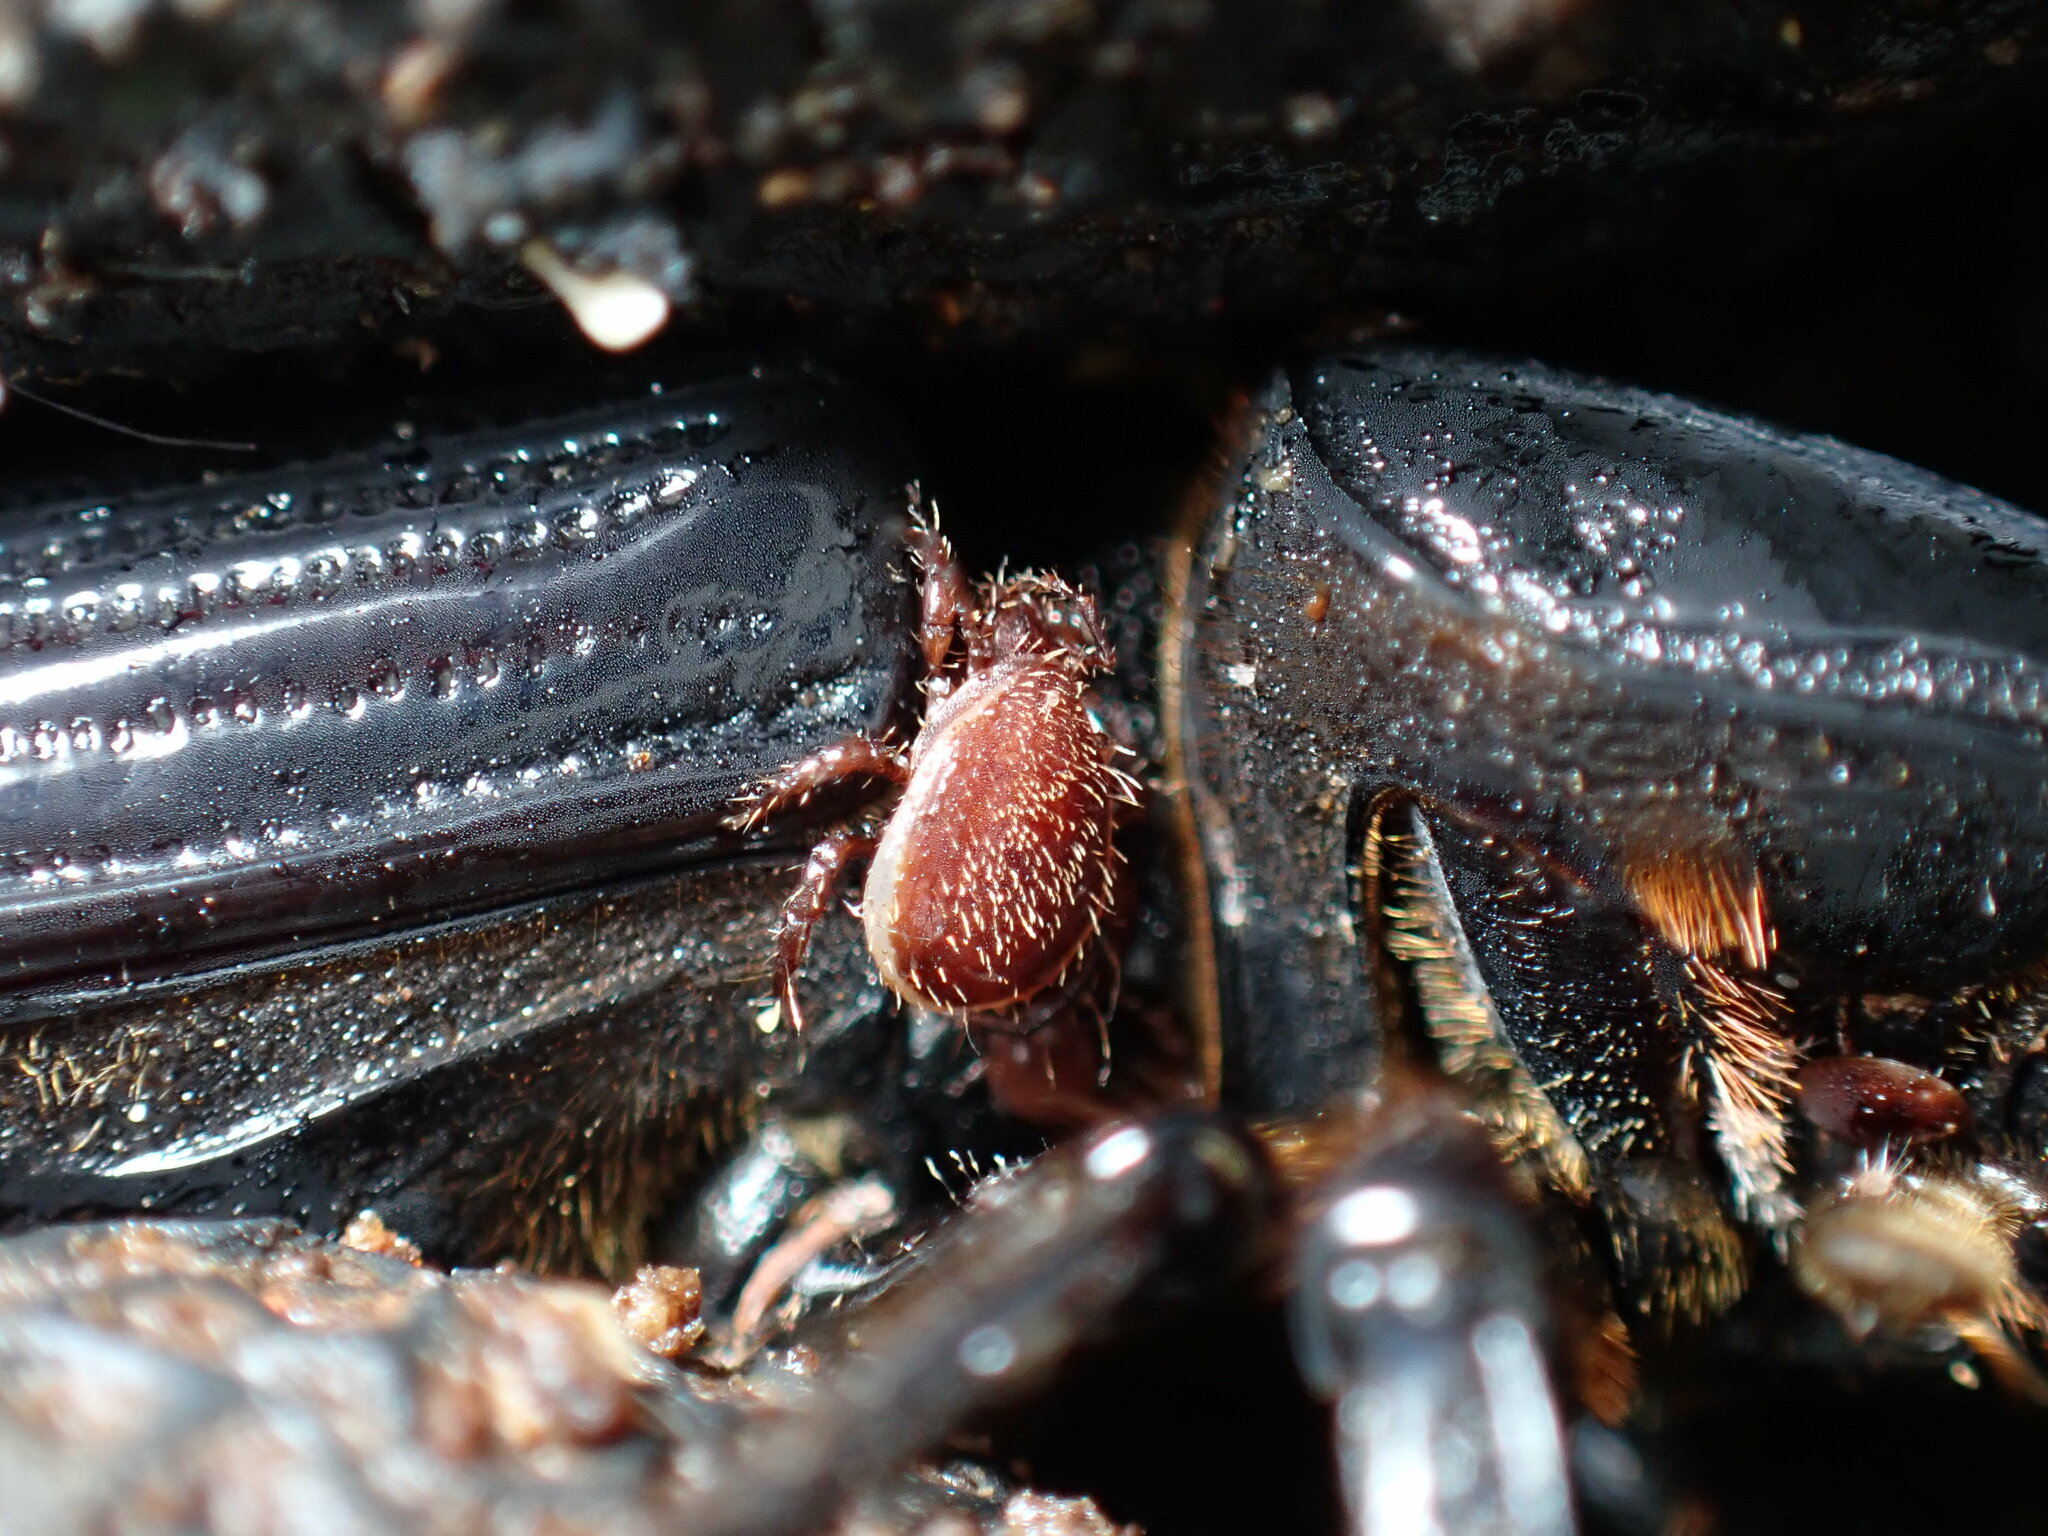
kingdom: Animalia
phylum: Arthropoda
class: Arachnida
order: Mesostigmata
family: Megisthanidae
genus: Megisthanus
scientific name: Megisthanus thorelli
